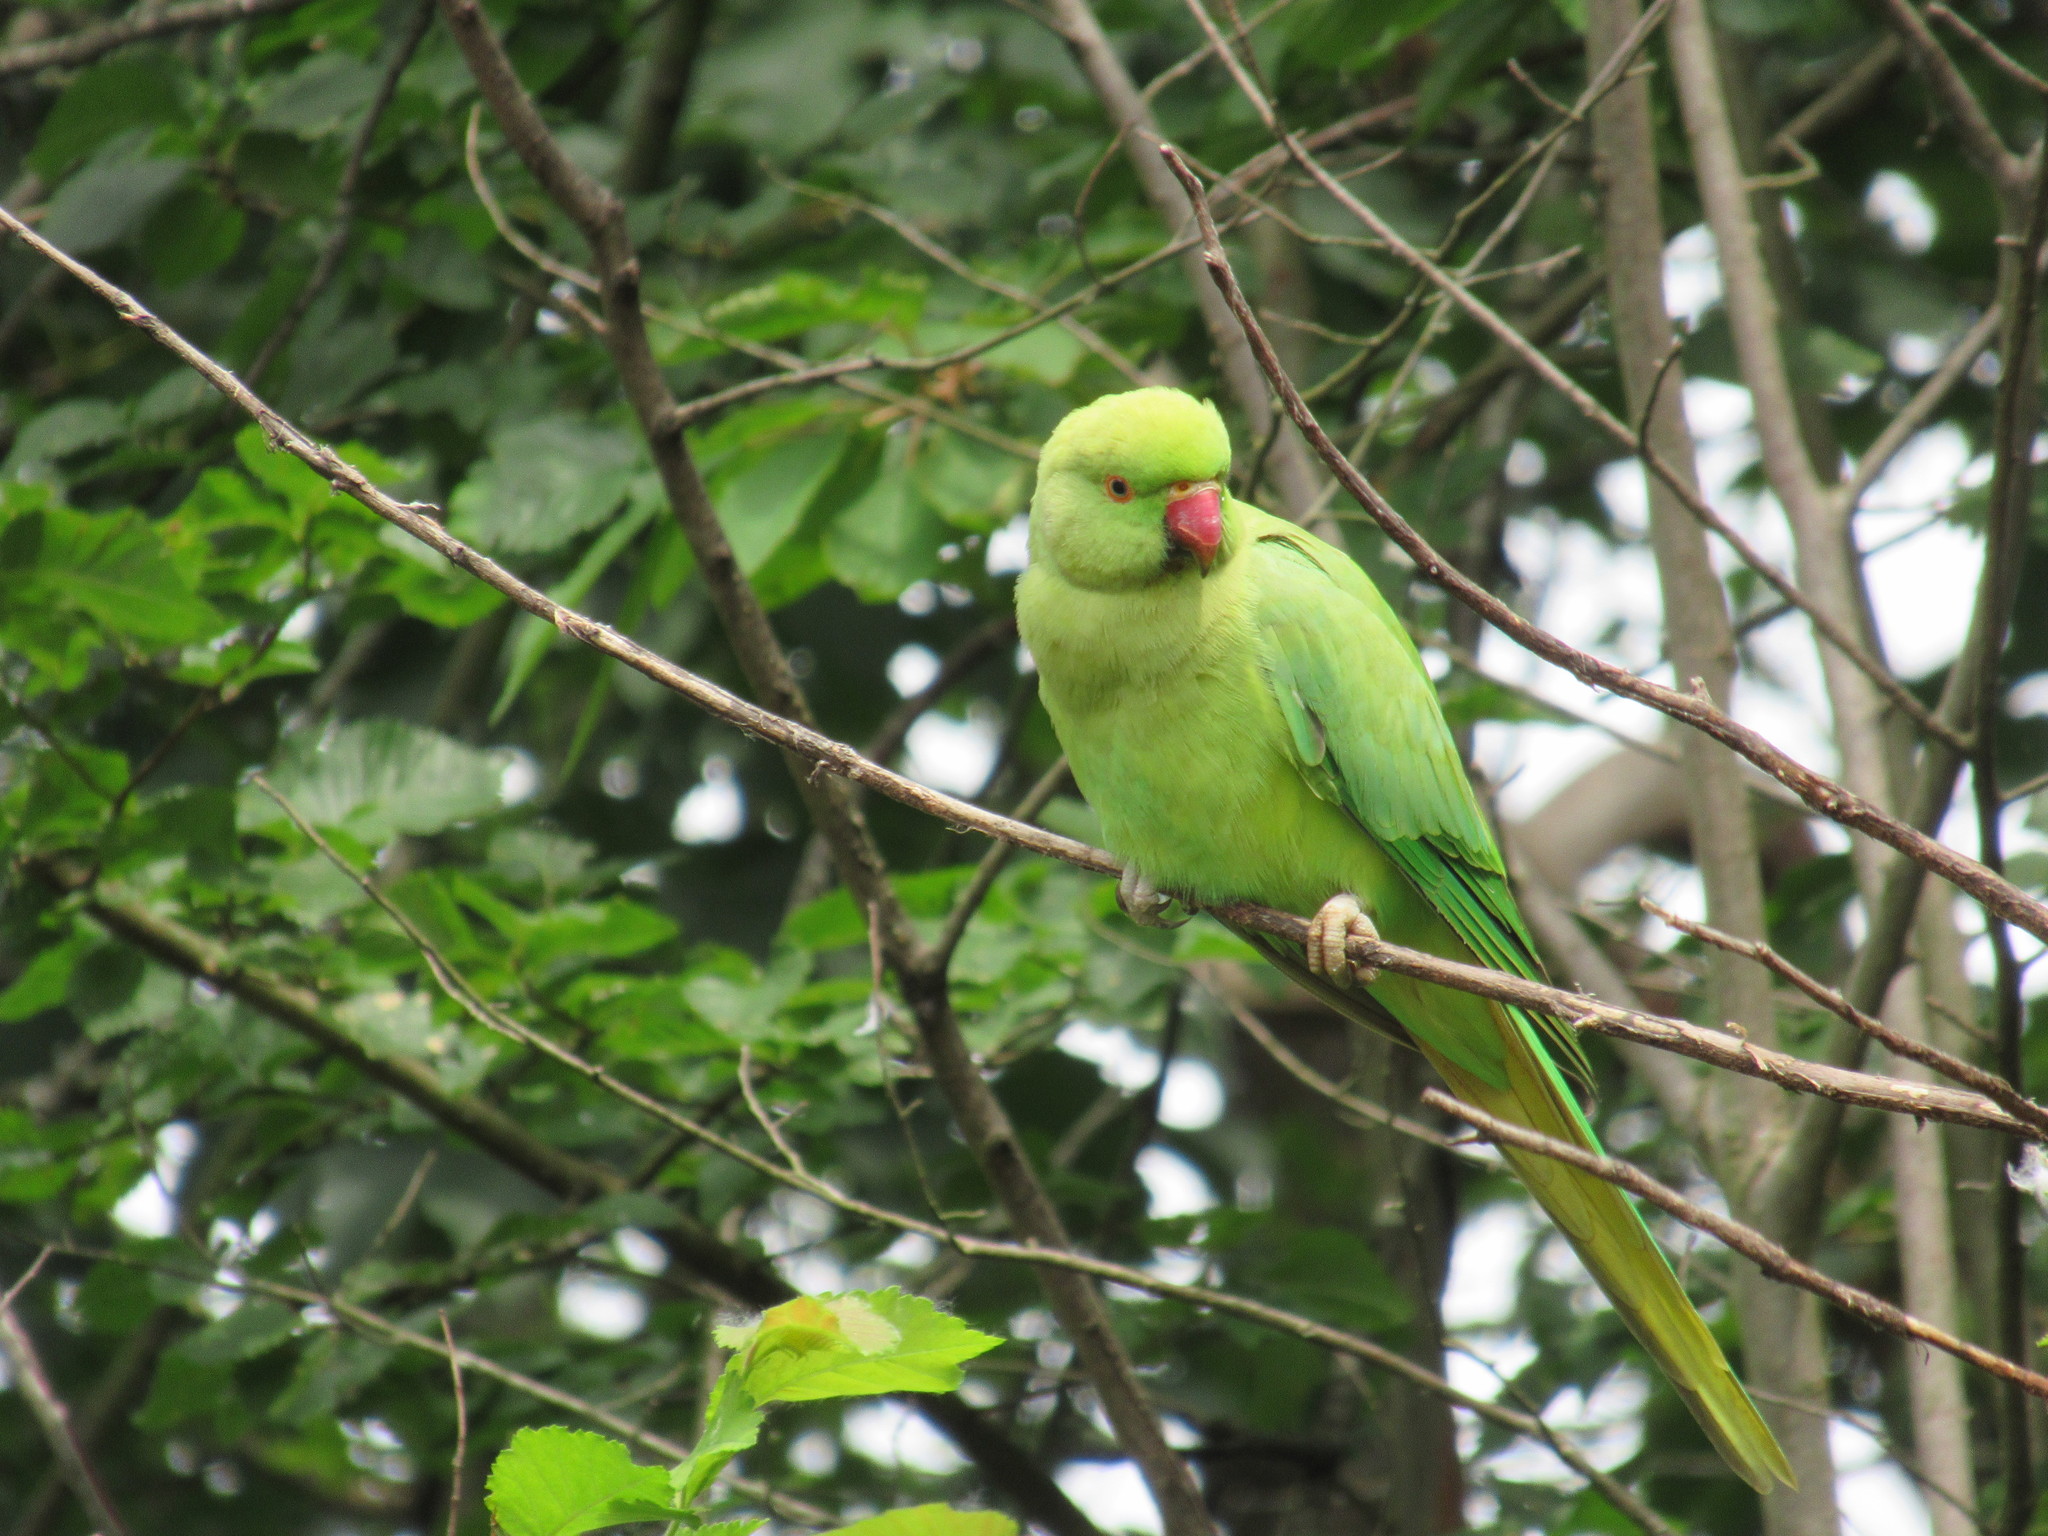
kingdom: Animalia
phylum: Chordata
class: Aves
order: Psittaciformes
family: Psittacidae
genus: Psittacula
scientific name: Psittacula krameri
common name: Rose-ringed parakeet
